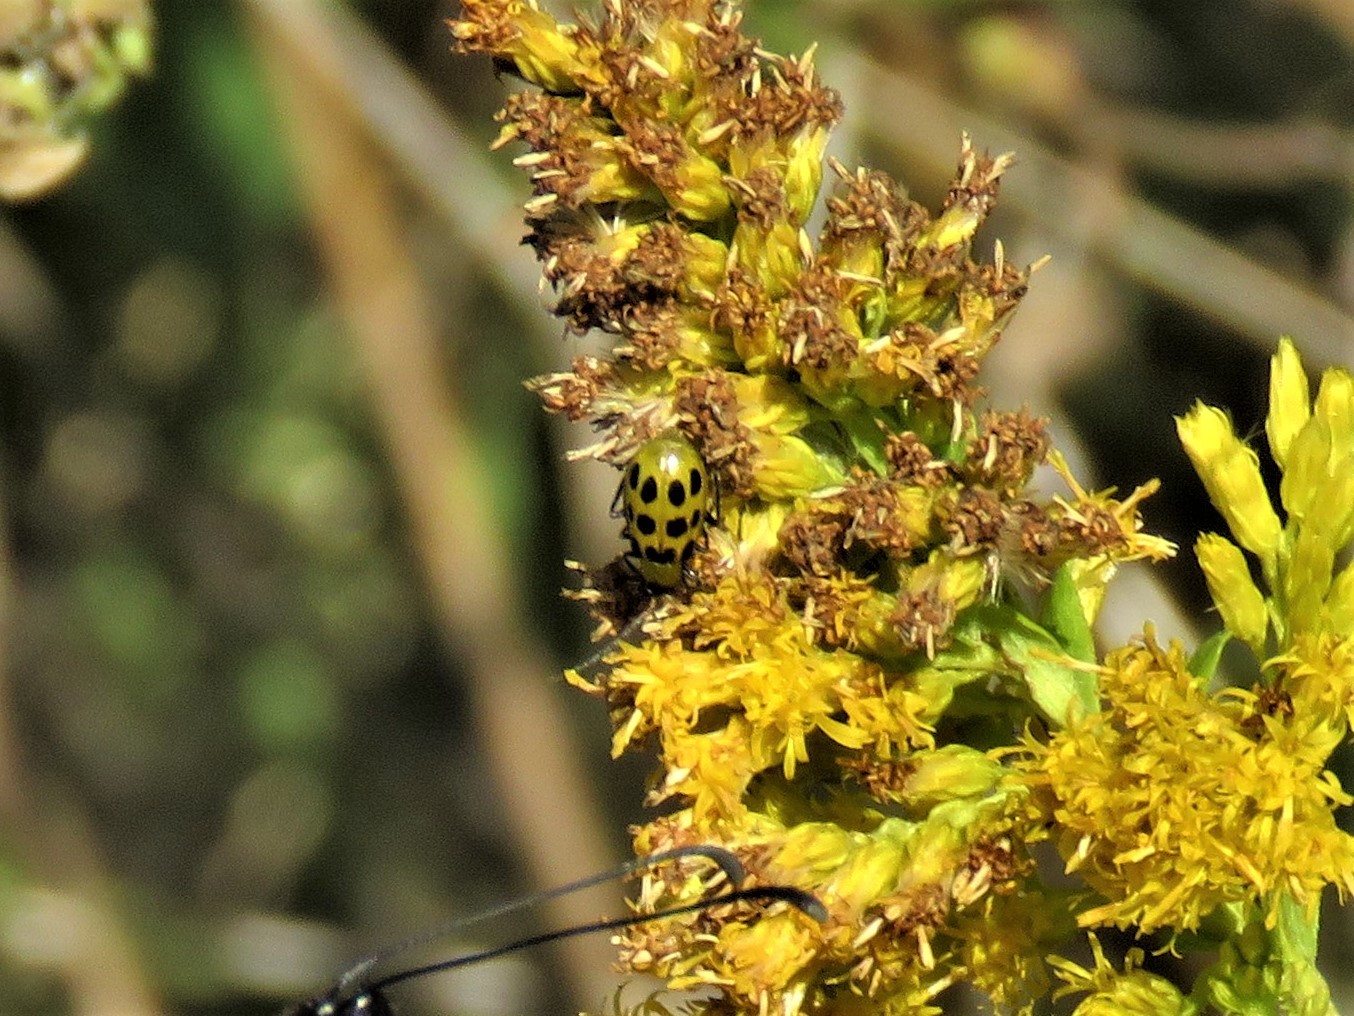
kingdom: Animalia
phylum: Arthropoda
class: Insecta
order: Coleoptera
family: Chrysomelidae
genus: Diabrotica
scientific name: Diabrotica undecimpunctata
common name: Spotted cucumber beetle
